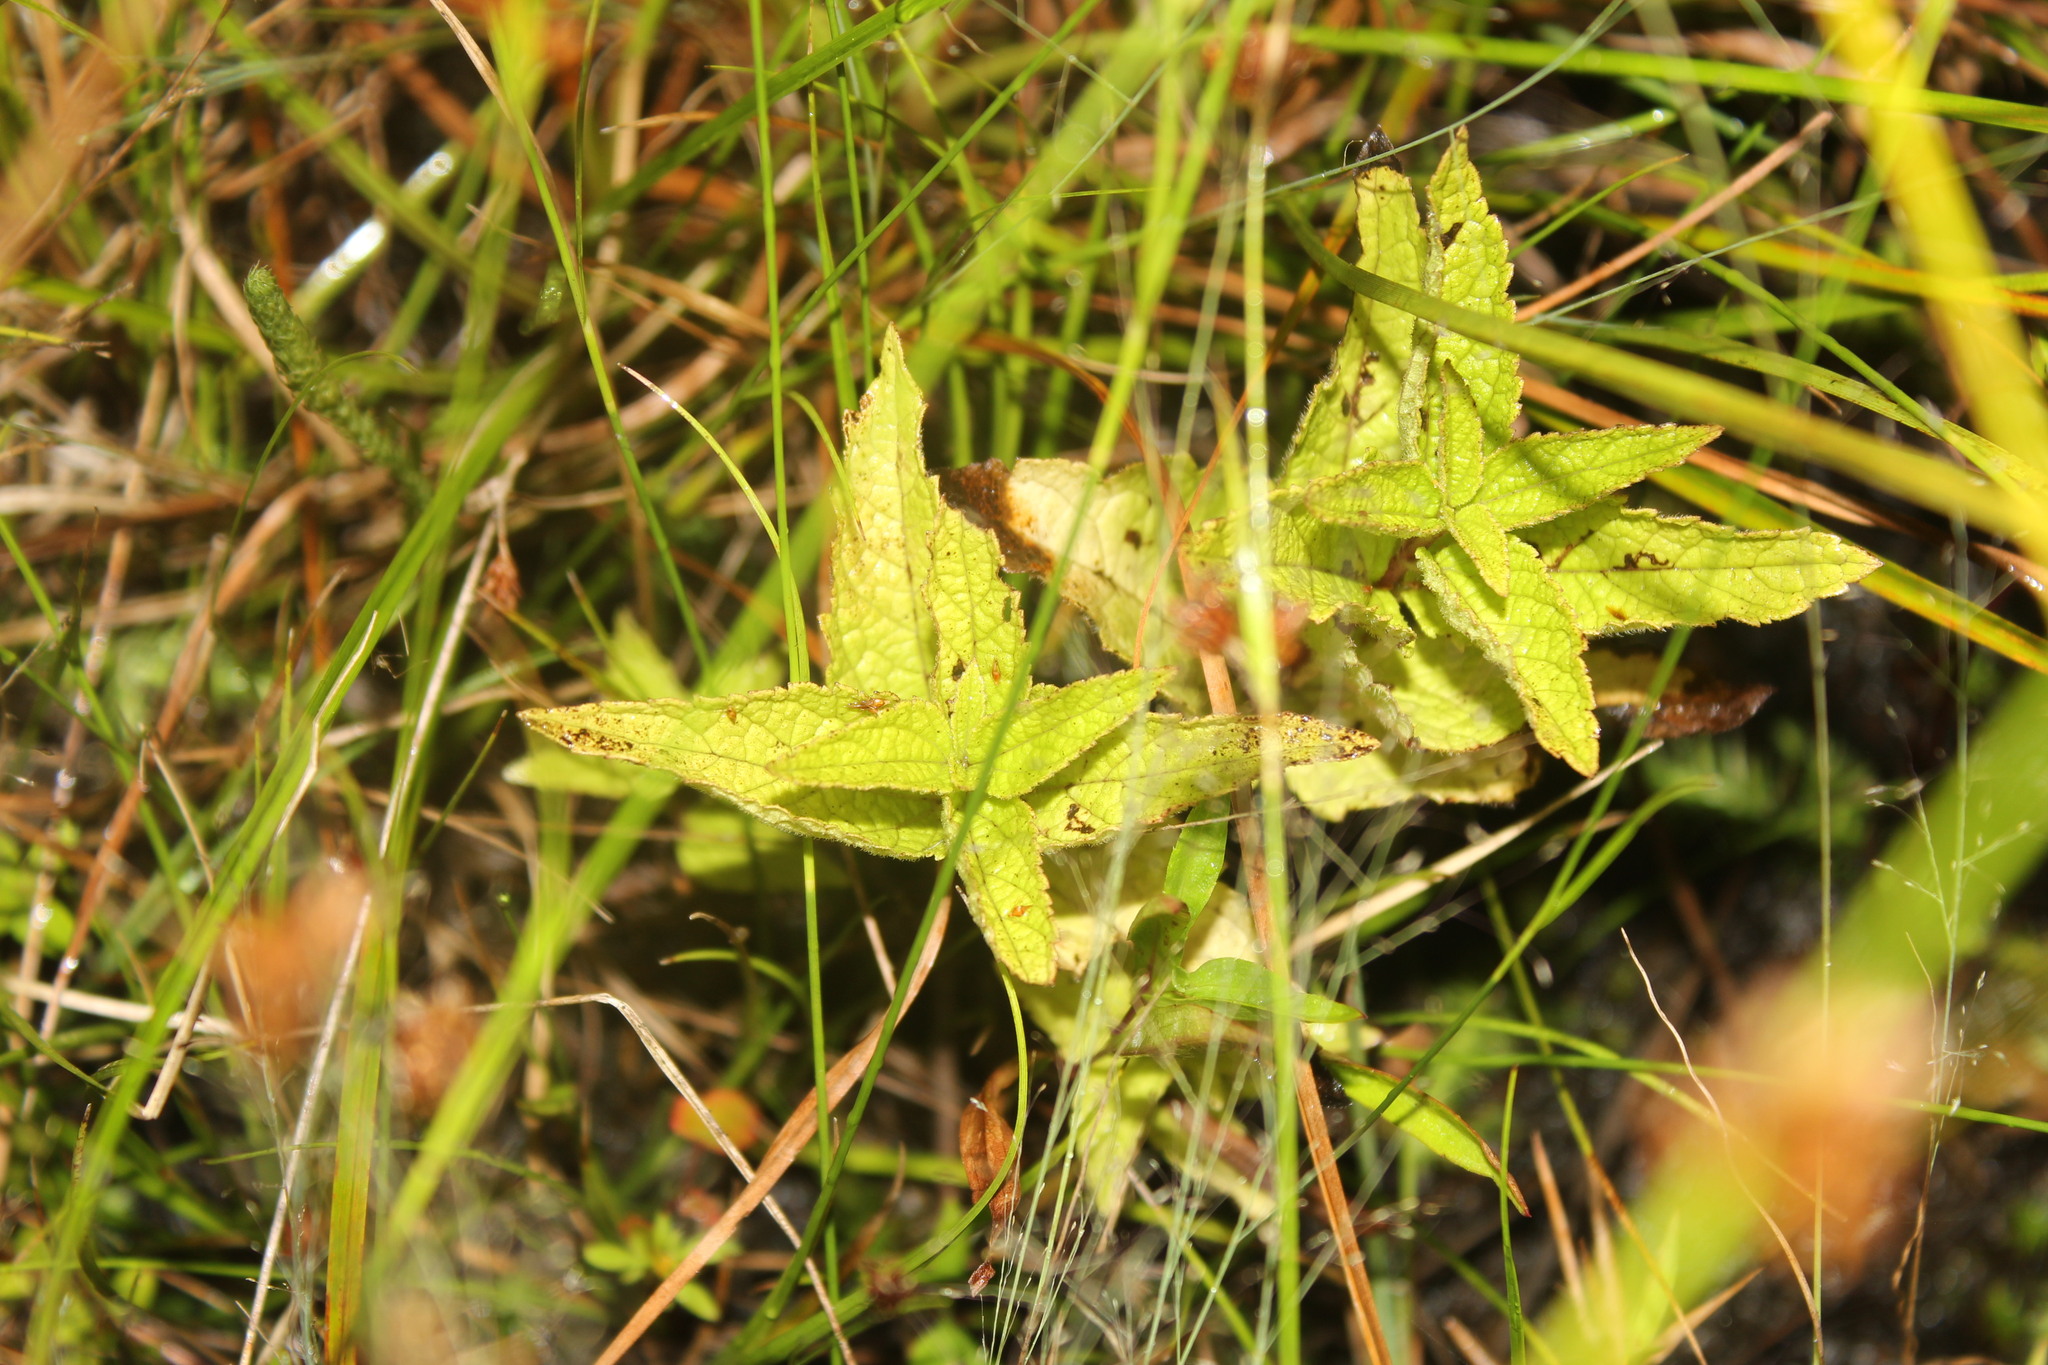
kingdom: Plantae
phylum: Tracheophyta
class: Magnoliopsida
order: Asterales
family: Asteraceae
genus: Eupatorium
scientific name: Eupatorium perfoliatum
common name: Boneset
